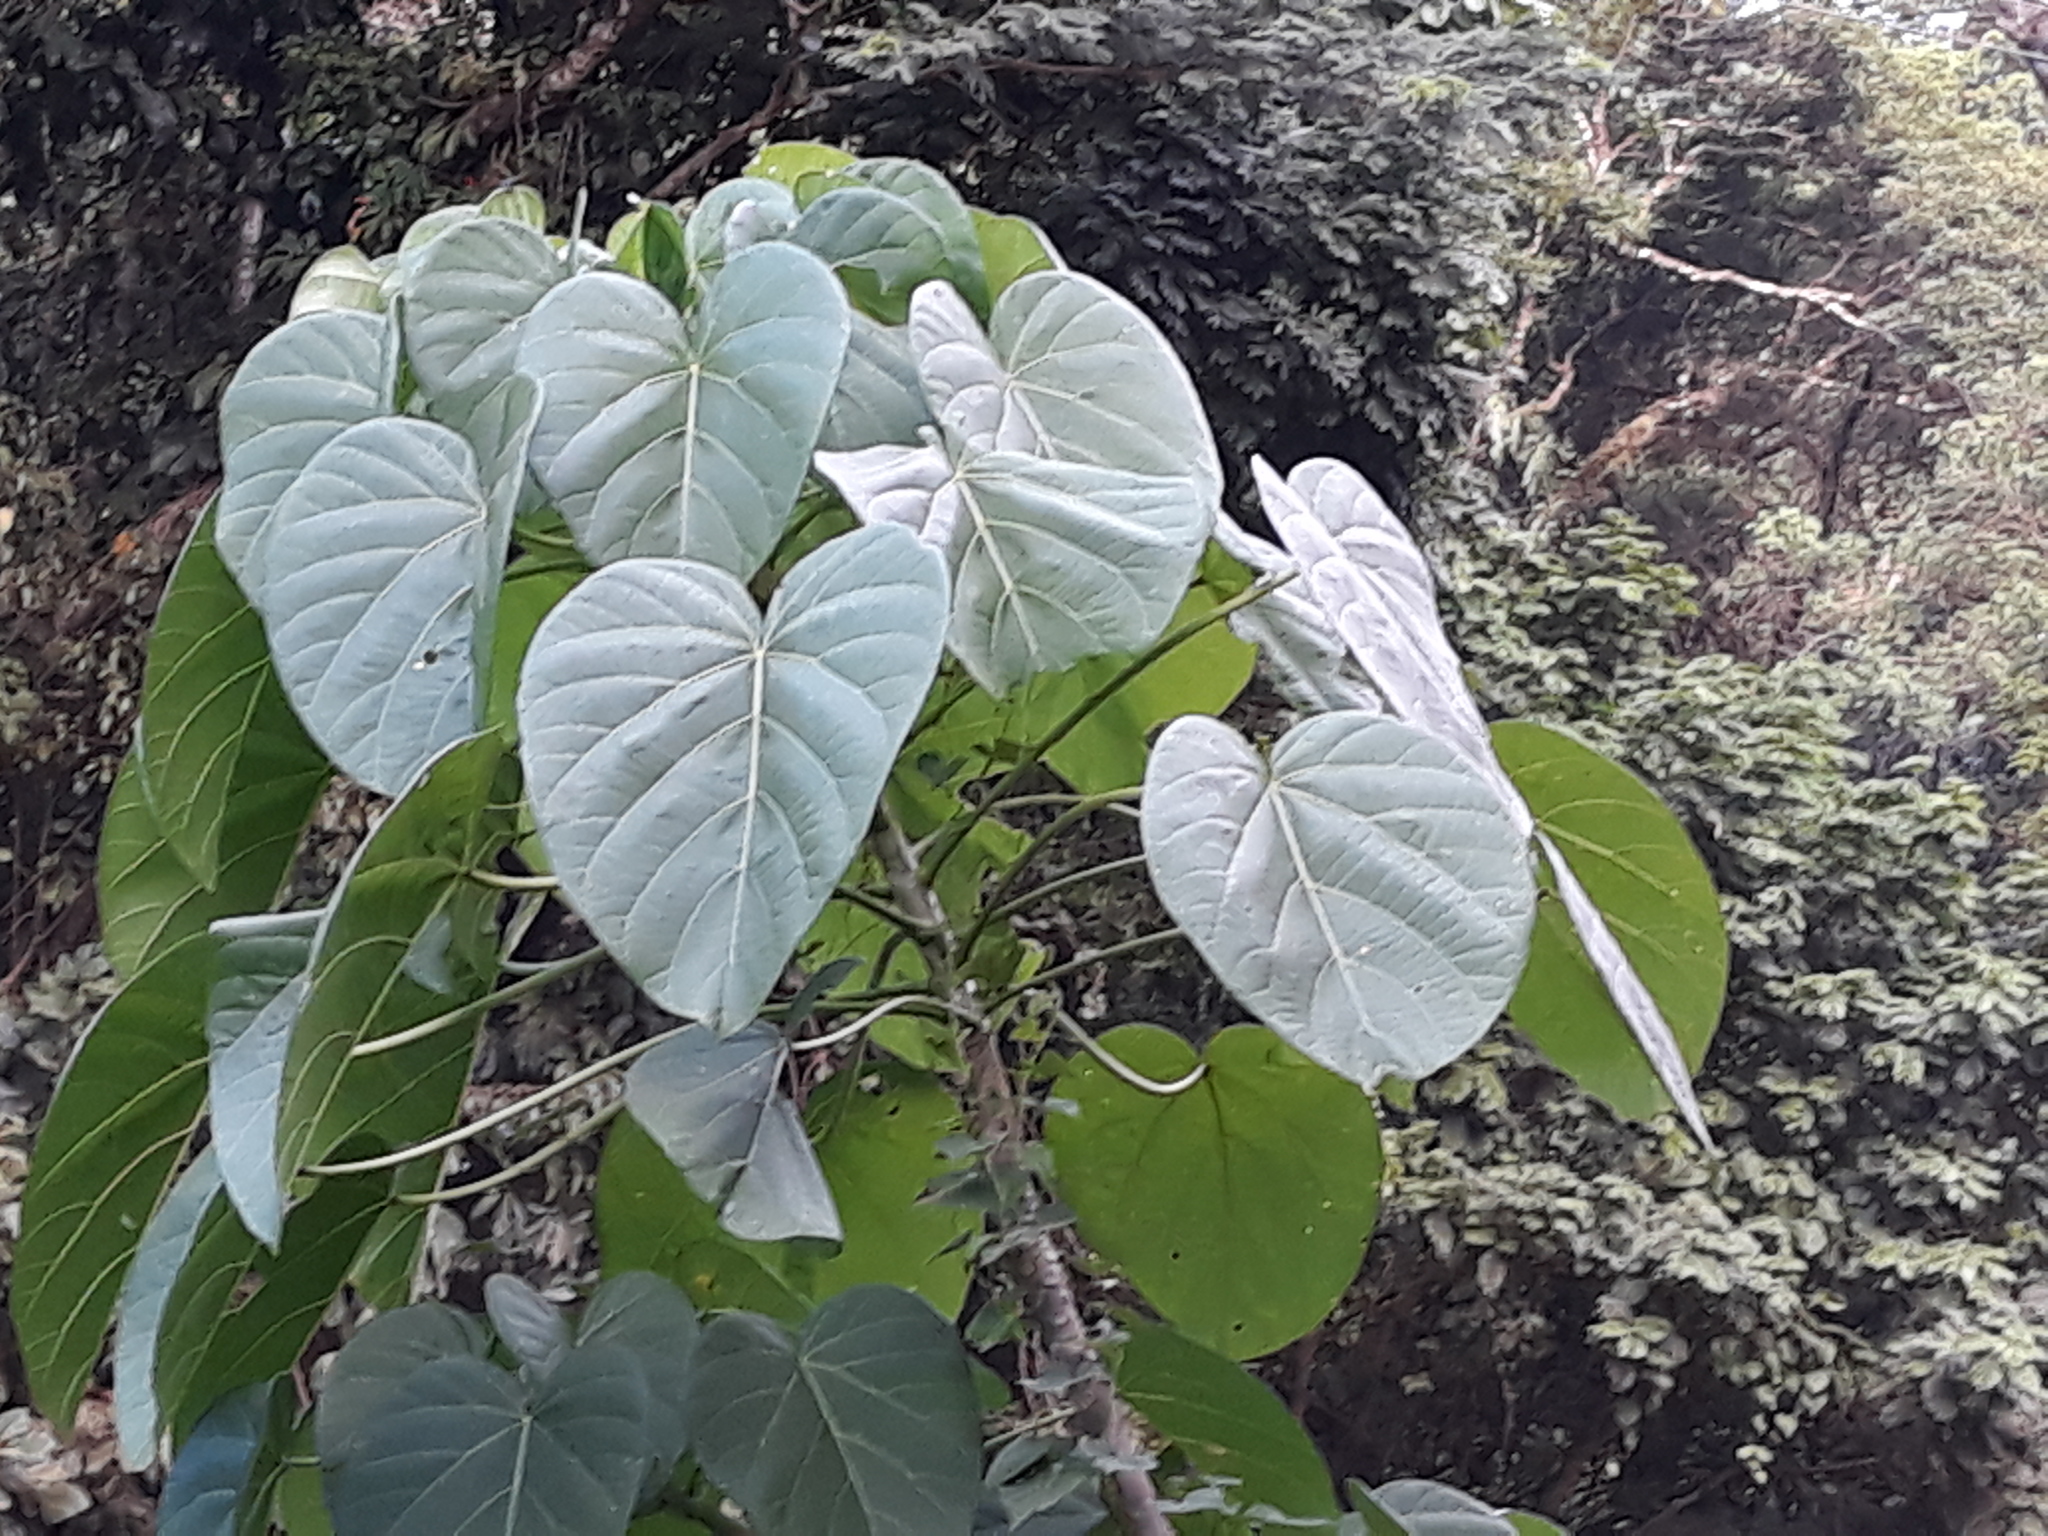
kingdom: Plantae
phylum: Tracheophyta
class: Magnoliopsida
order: Malpighiales
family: Euphorbiaceae
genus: Omphalea
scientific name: Omphalea oleifera
